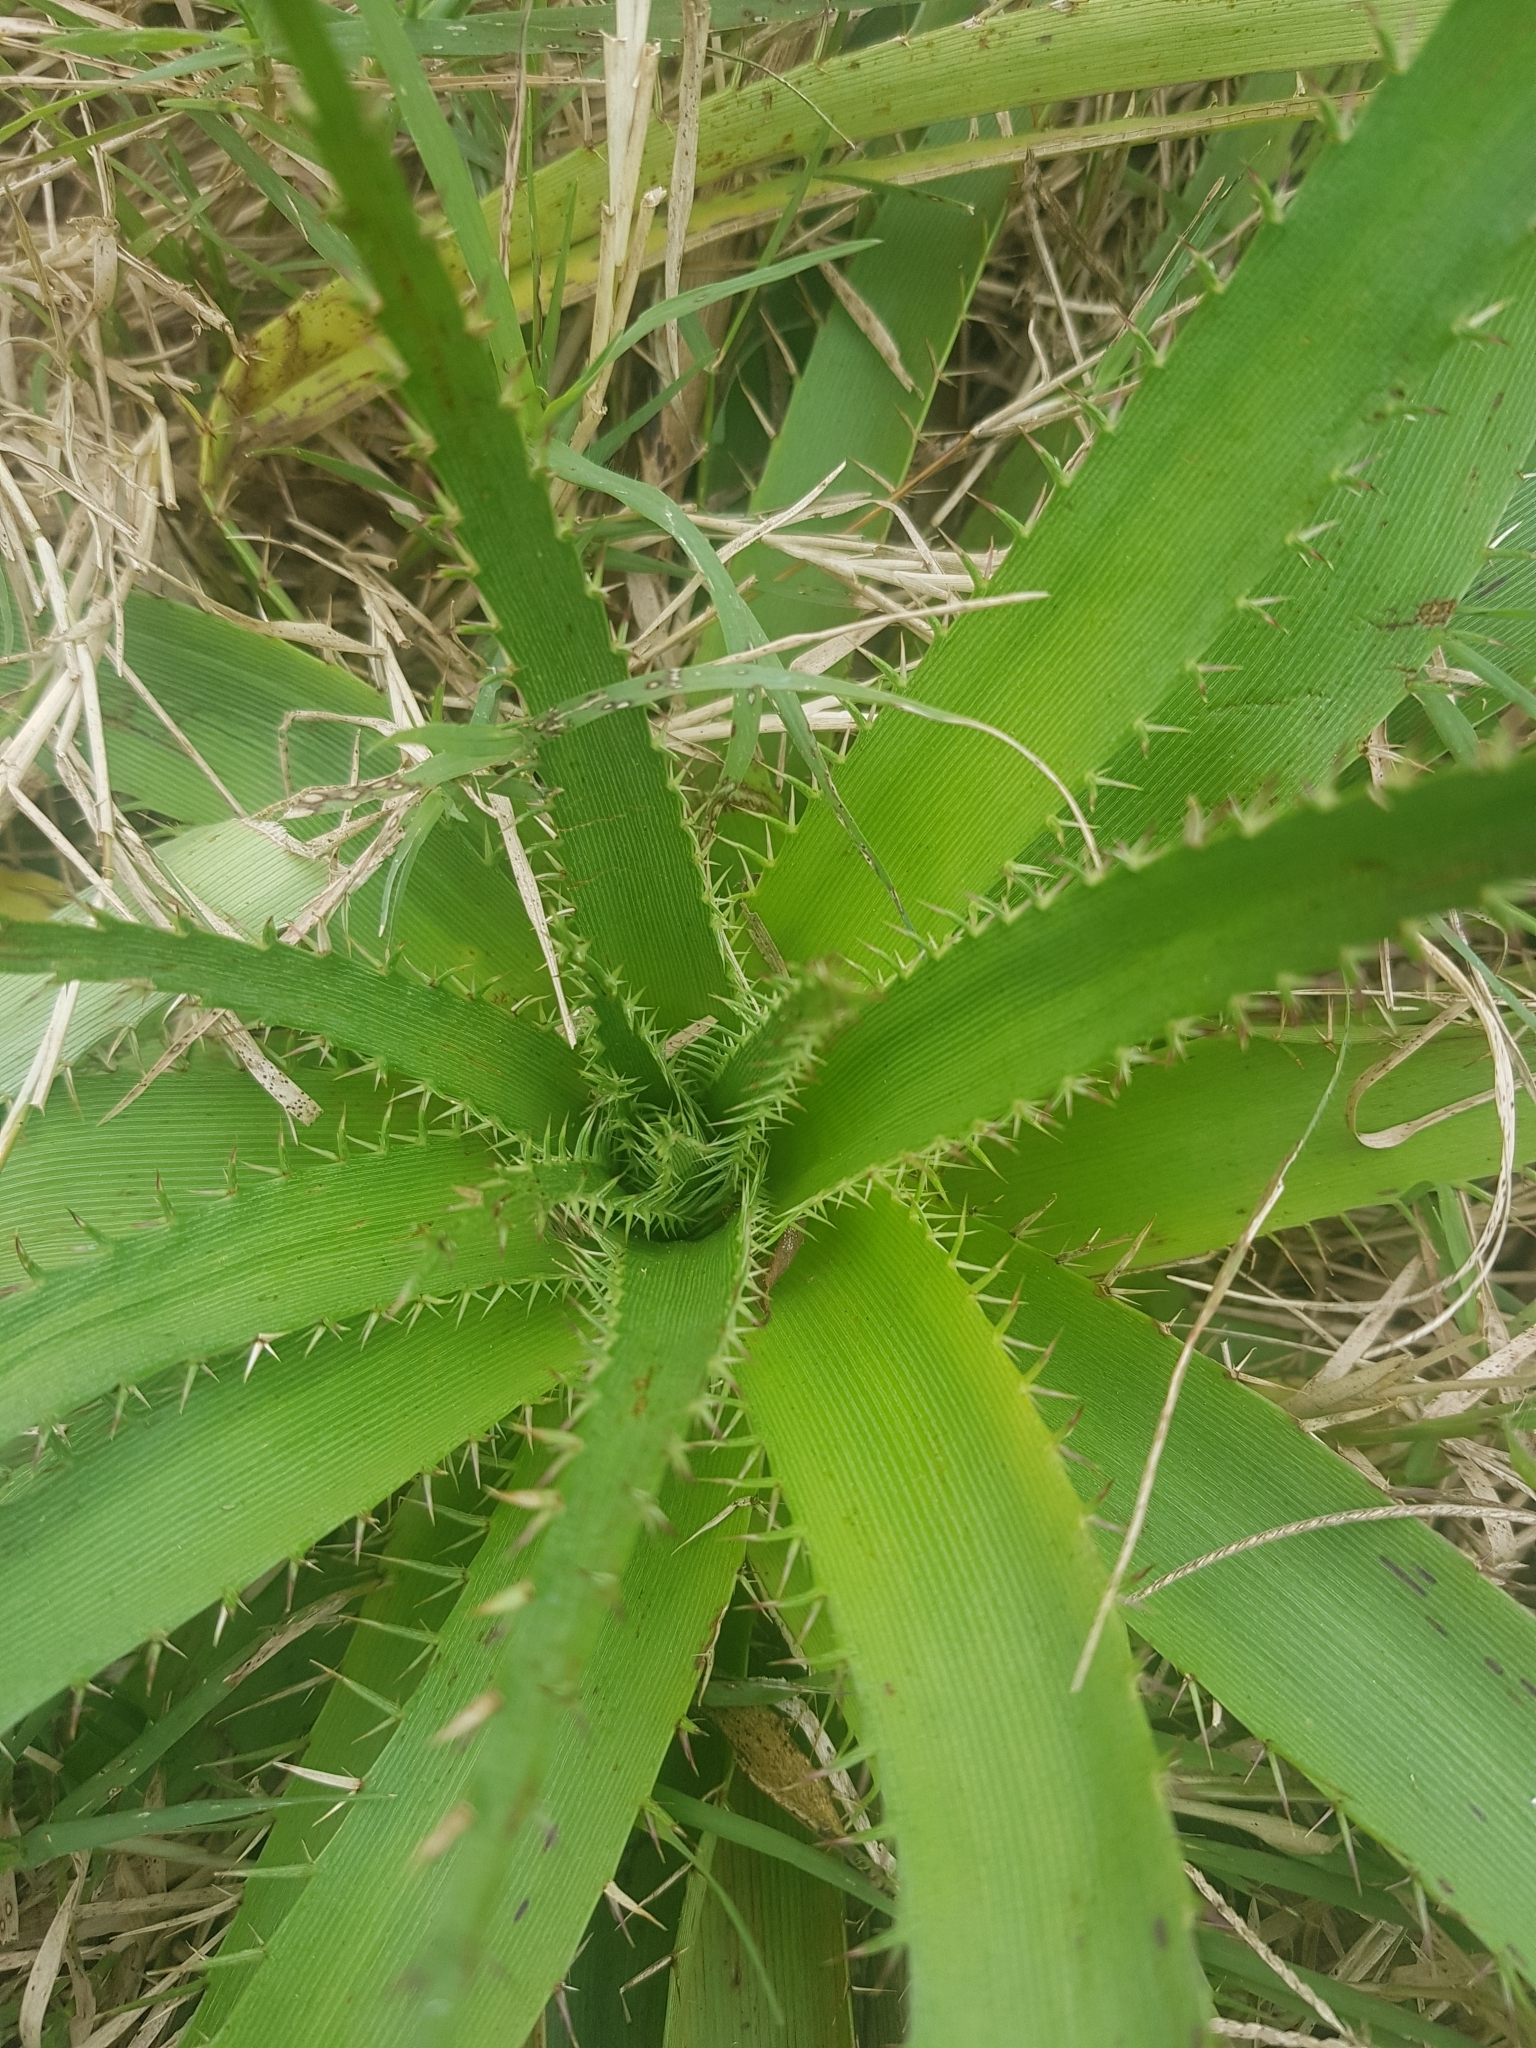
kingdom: Plantae
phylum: Tracheophyta
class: Magnoliopsida
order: Apiales
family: Apiaceae
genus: Eryngium
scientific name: Eryngium horridum
